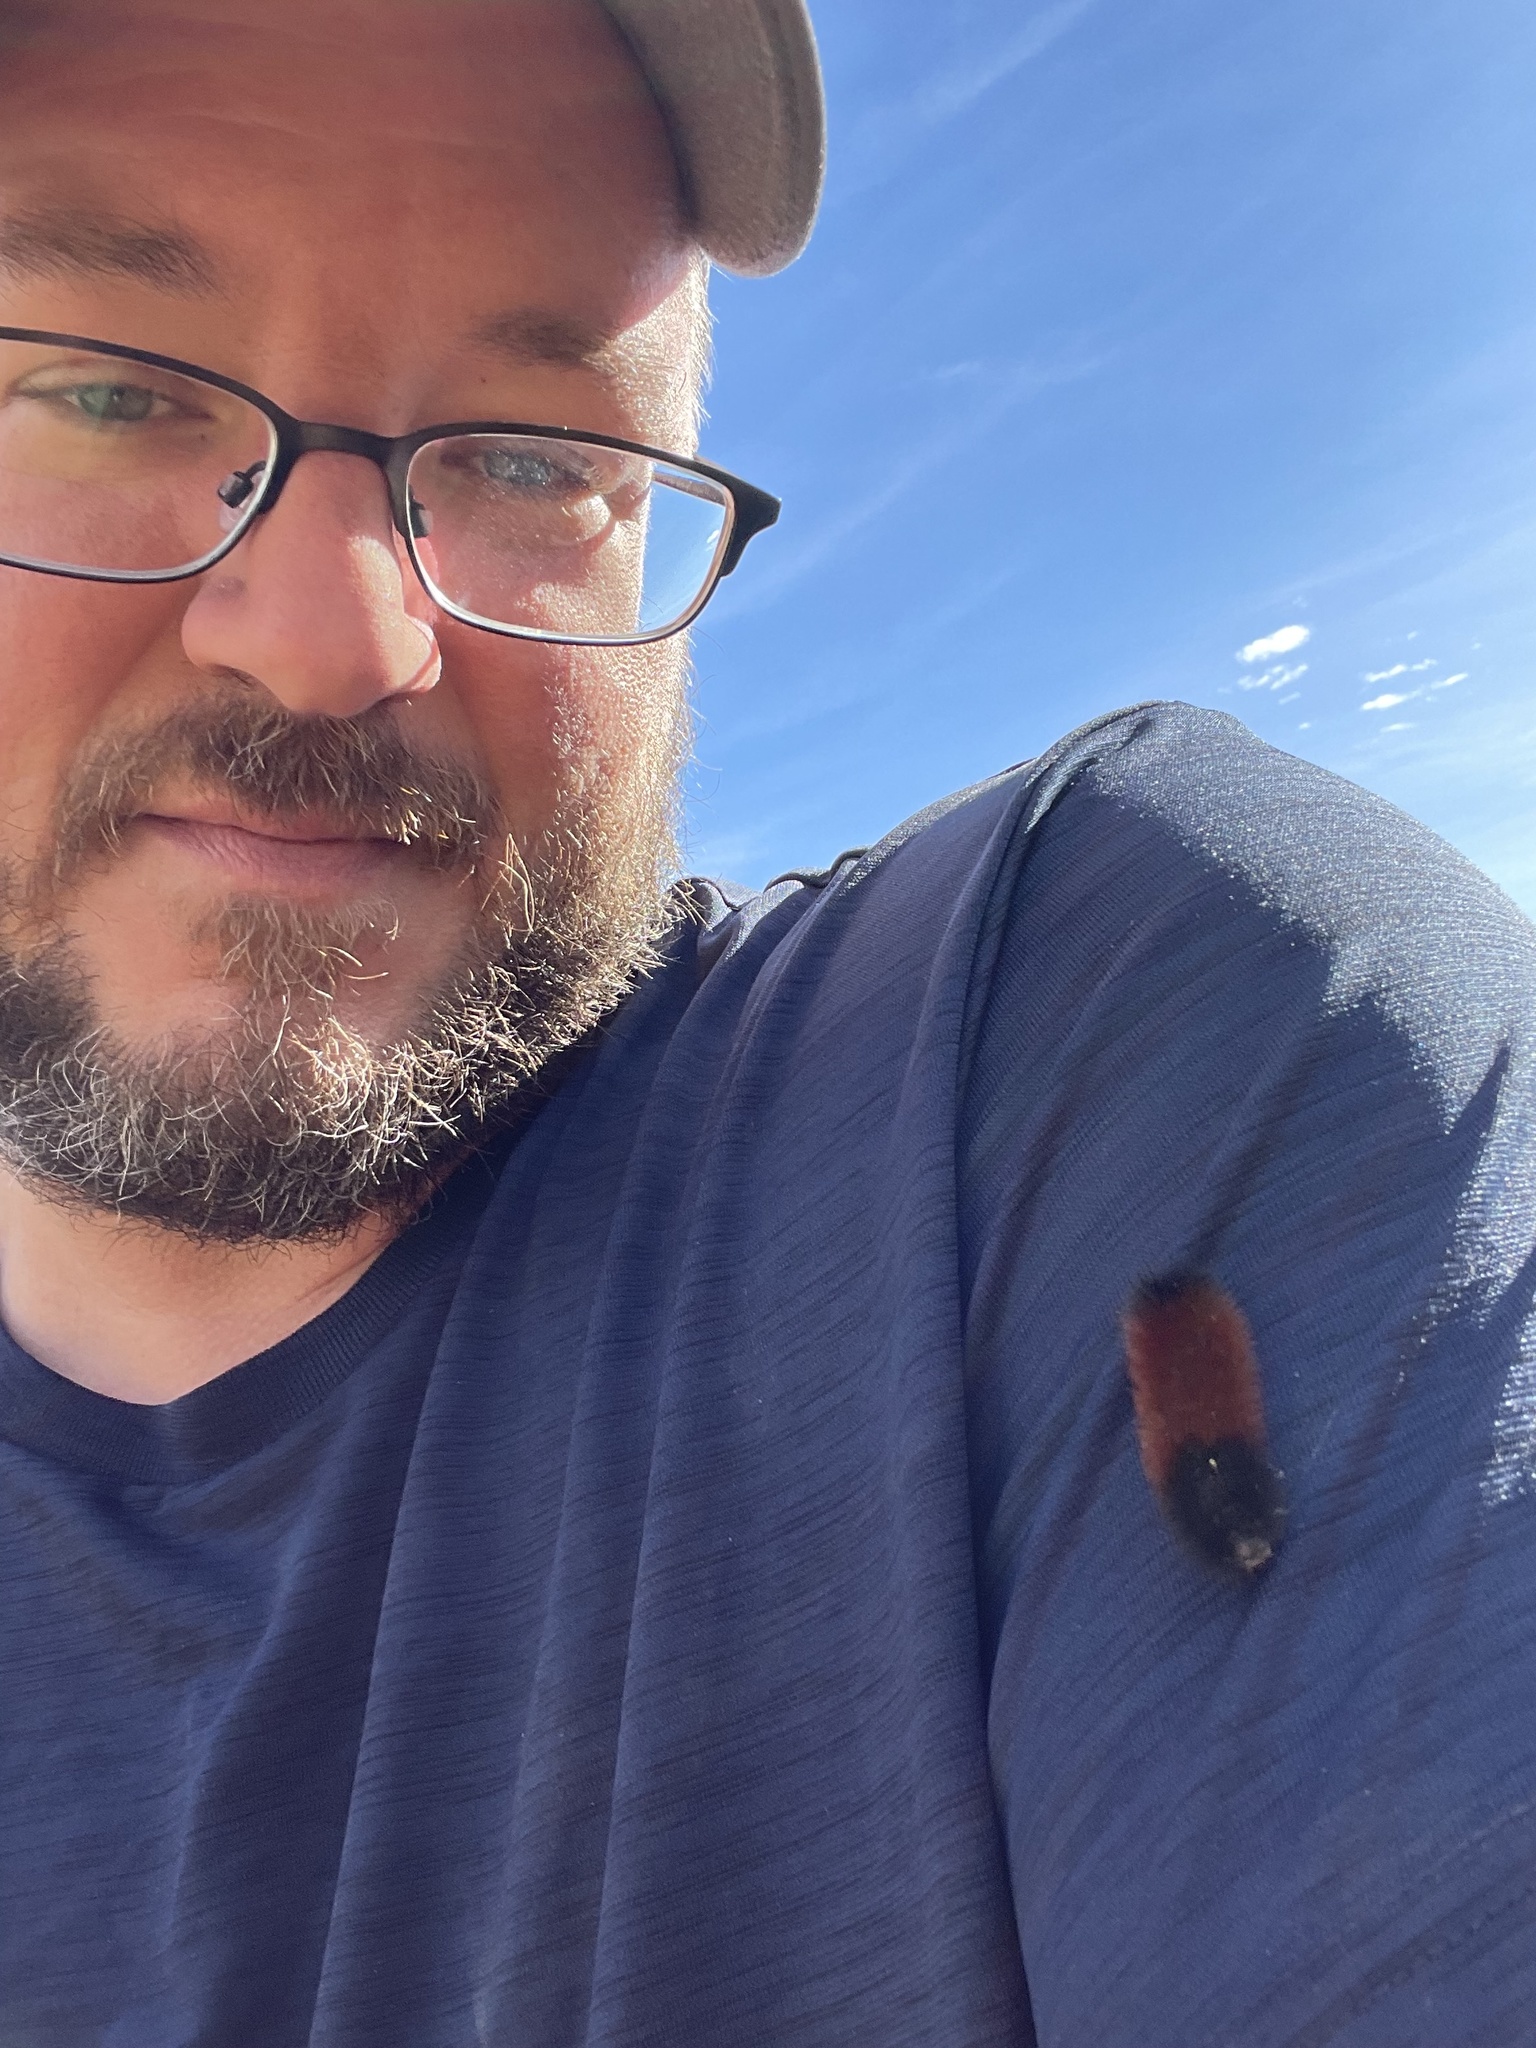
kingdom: Animalia
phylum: Arthropoda
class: Insecta
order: Lepidoptera
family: Erebidae
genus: Pyrrharctia
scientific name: Pyrrharctia isabella
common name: Isabella tiger moth
